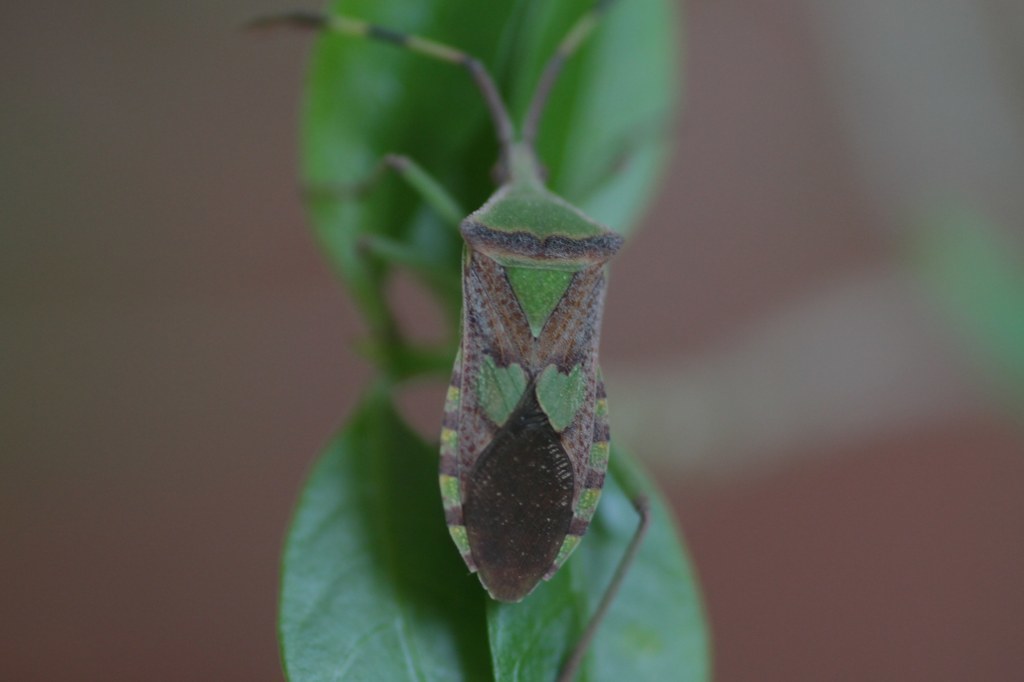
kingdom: Animalia
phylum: Arthropoda
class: Insecta
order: Hemiptera
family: Coreidae
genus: Prismatocerus
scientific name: Prismatocerus prominulus
